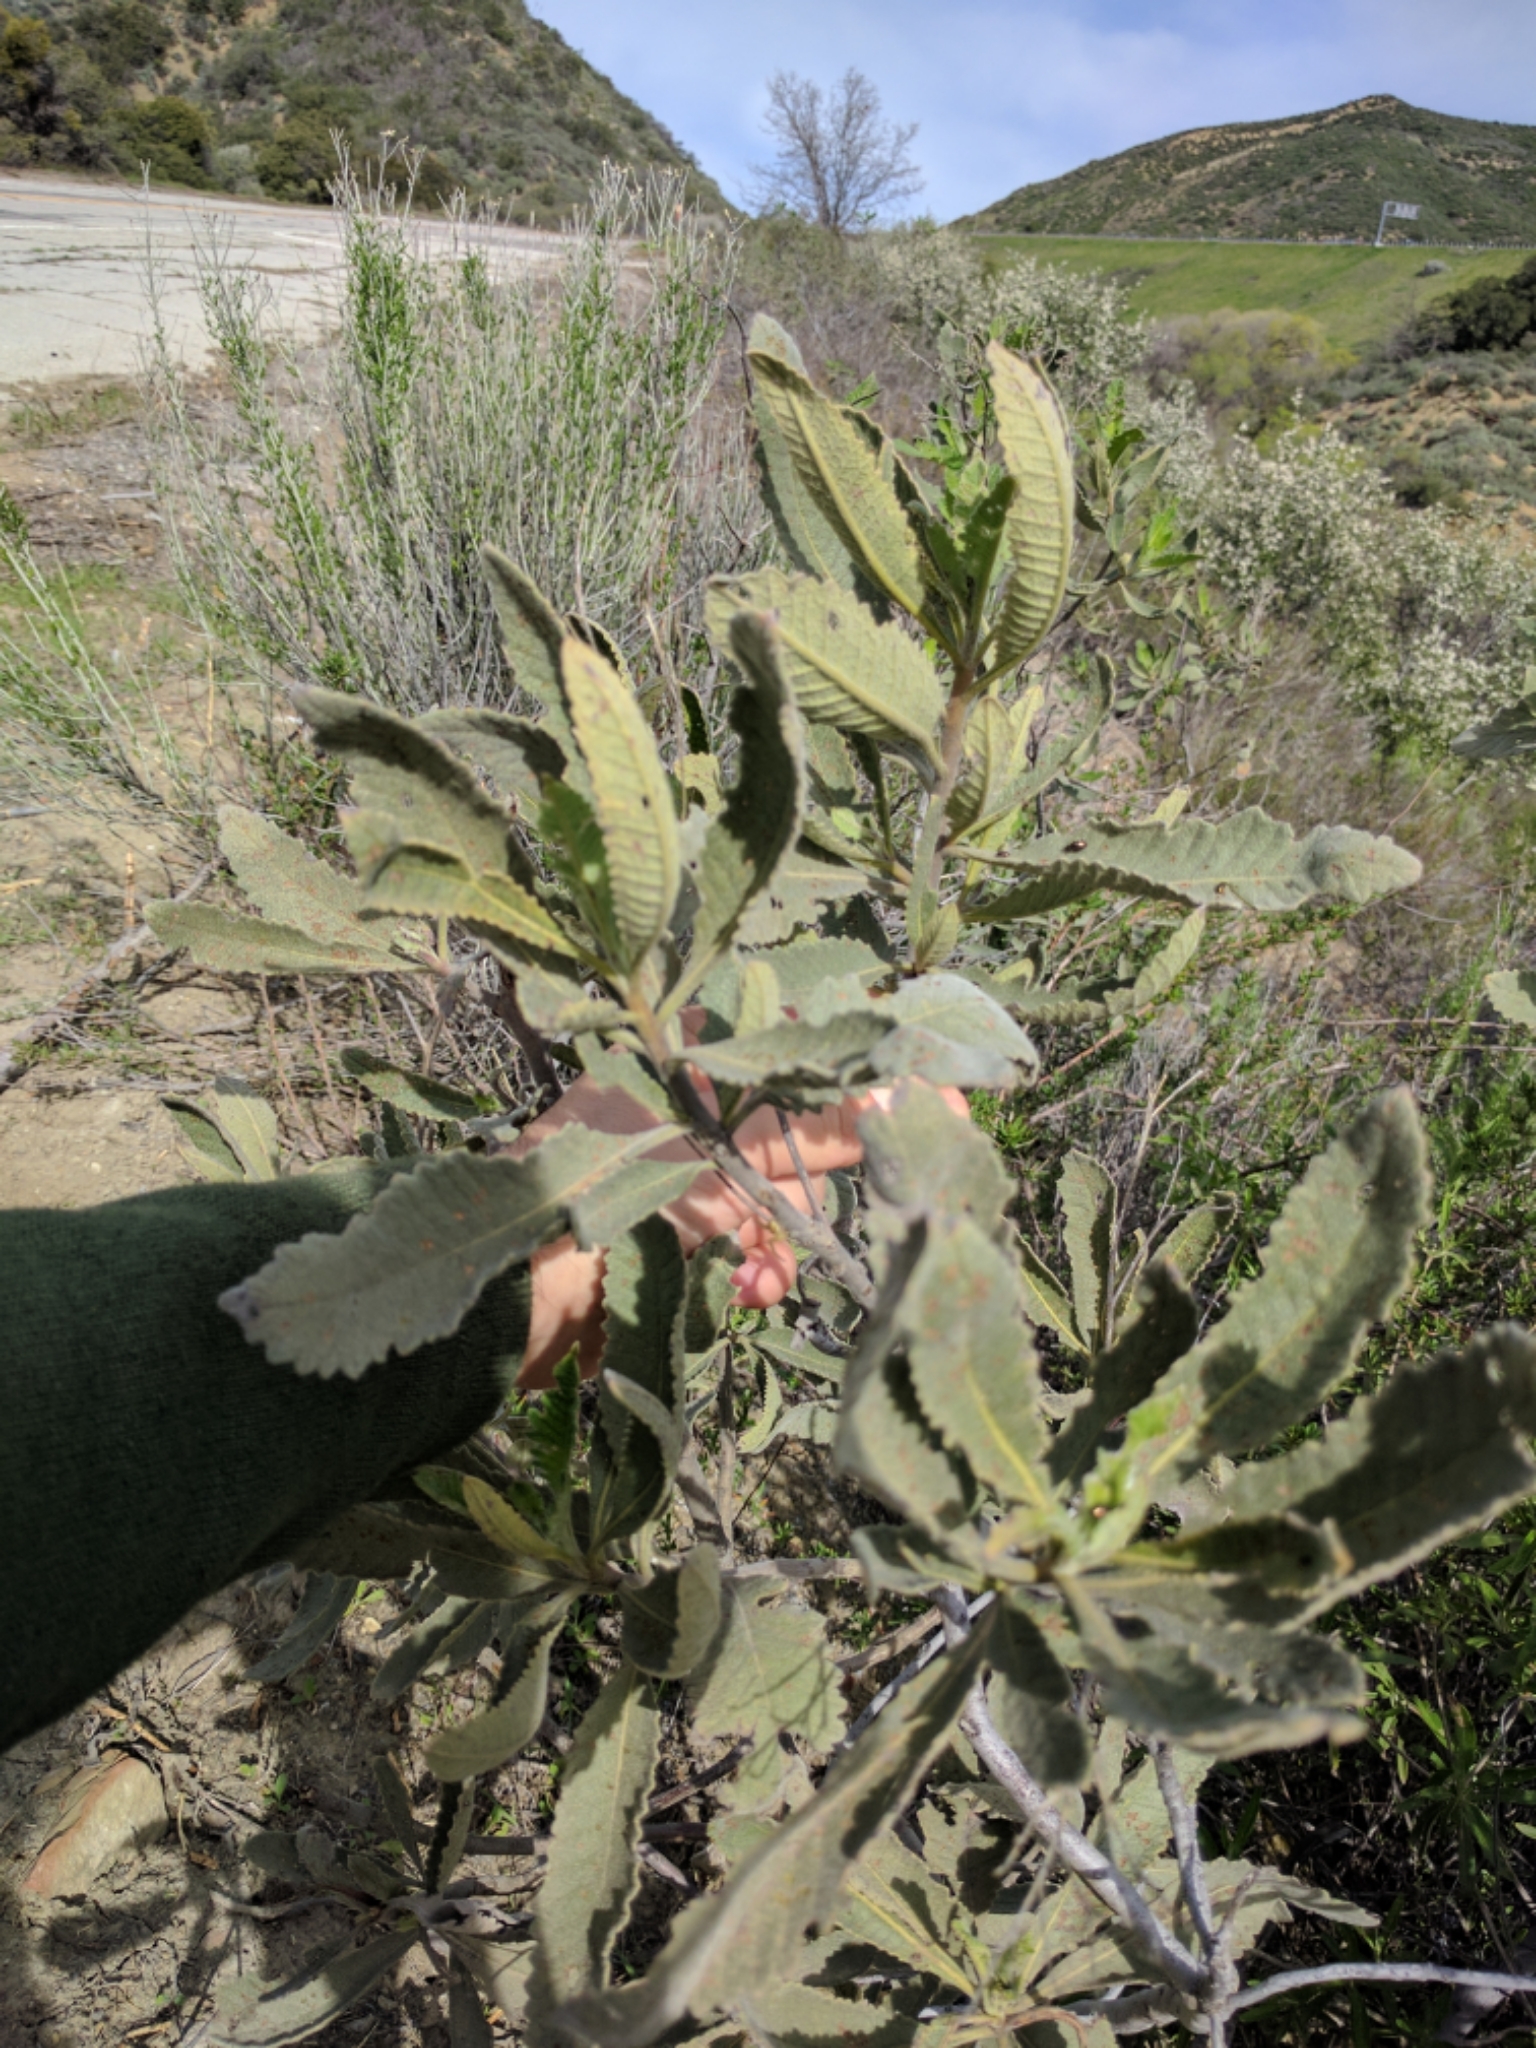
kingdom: Plantae
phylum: Tracheophyta
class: Magnoliopsida
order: Boraginales
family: Namaceae
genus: Eriodictyon
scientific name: Eriodictyon crassifolium
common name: Thick-leaf yerba-santa
